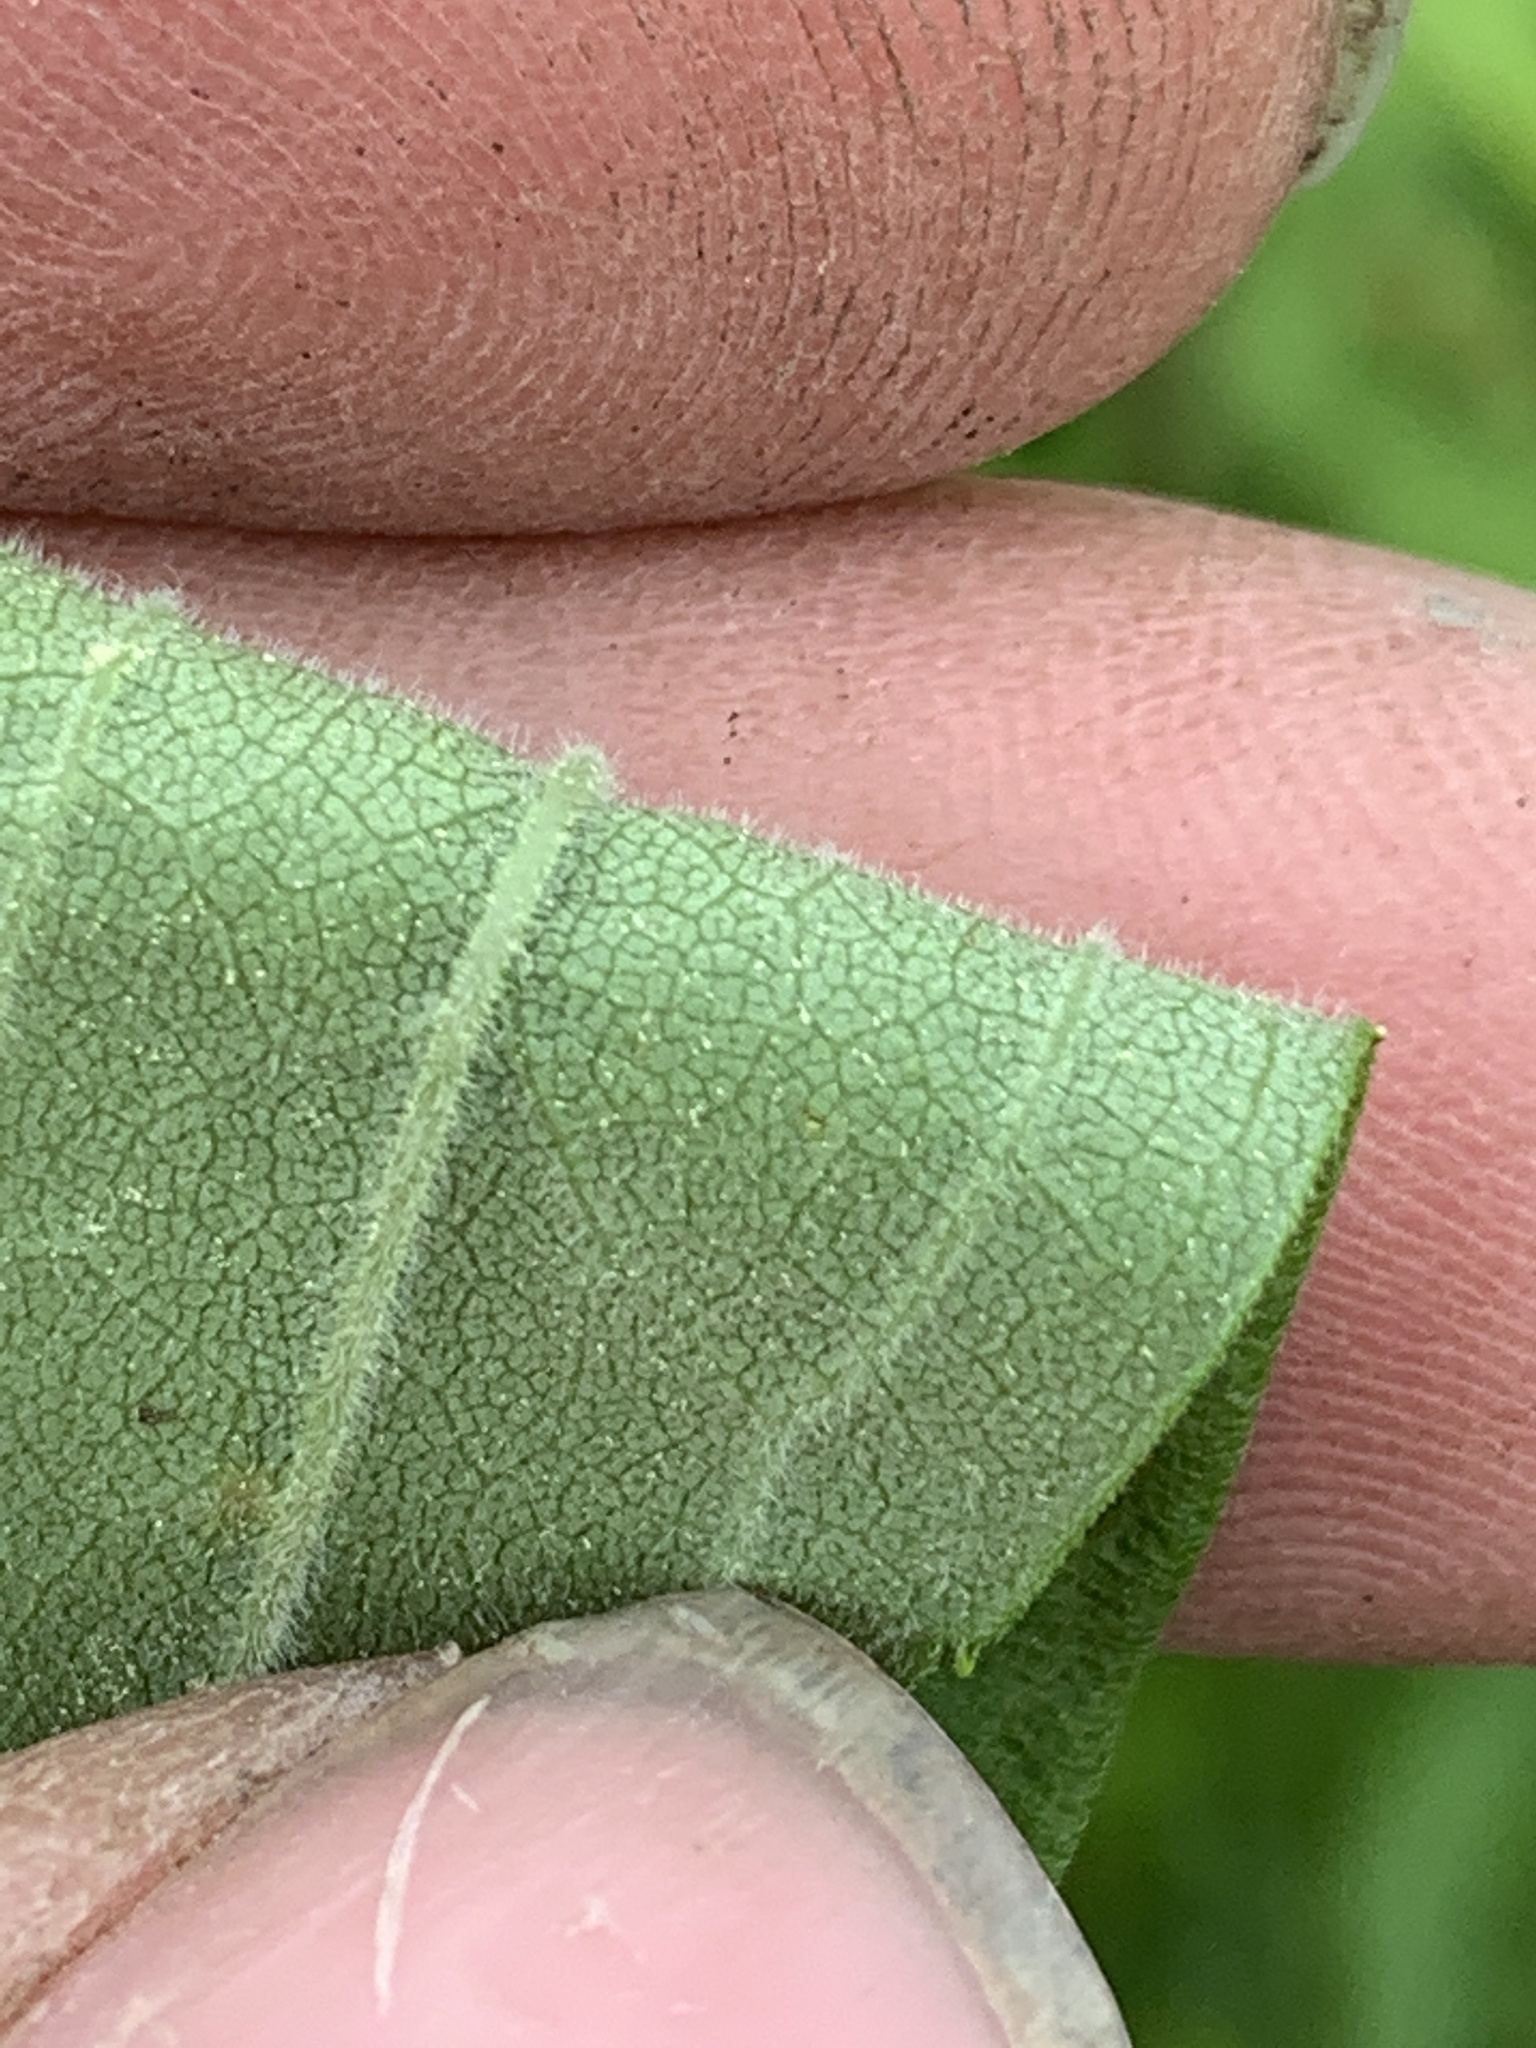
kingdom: Plantae
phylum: Tracheophyta
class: Magnoliopsida
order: Asterales
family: Asteraceae
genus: Solidago
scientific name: Solidago altissima
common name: Late goldenrod
